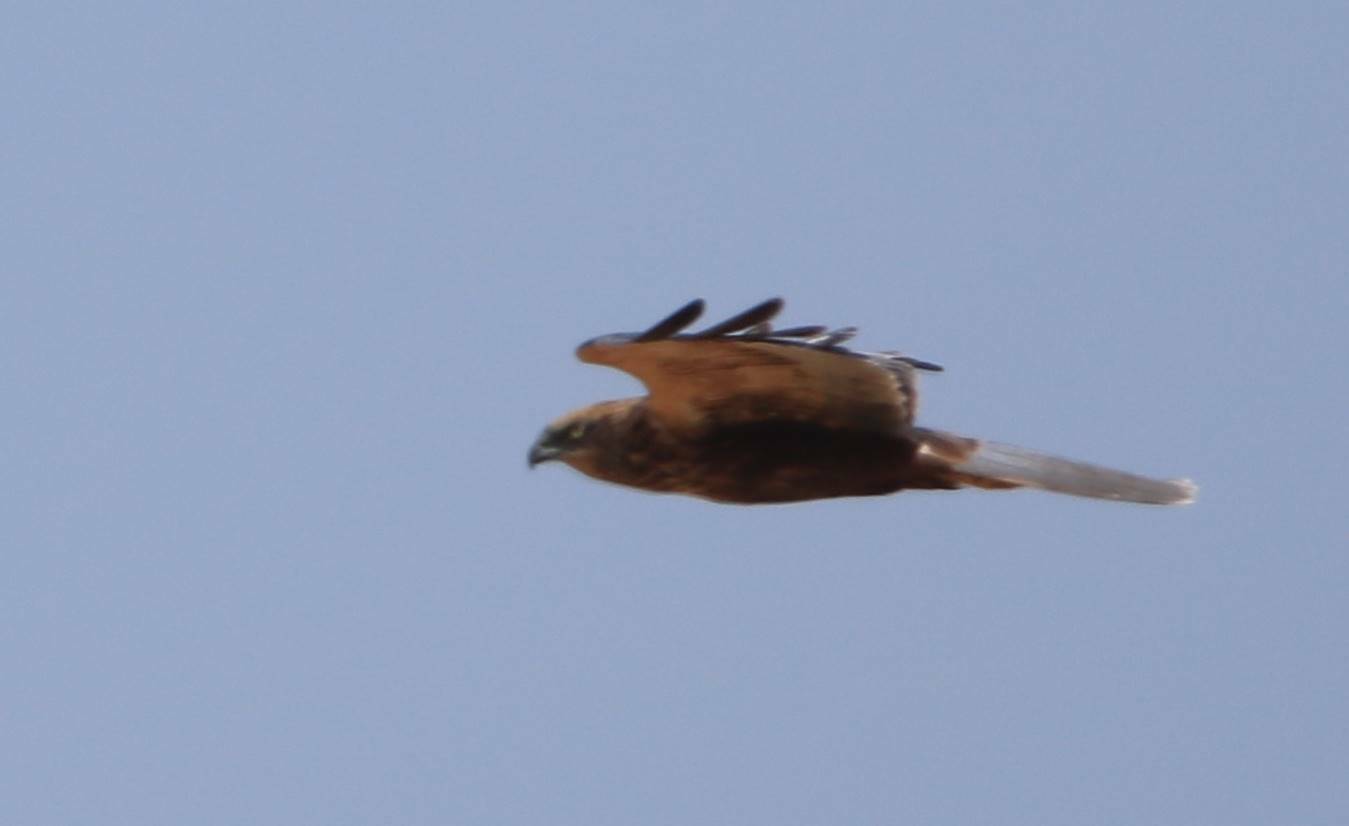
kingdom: Animalia
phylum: Chordata
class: Aves
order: Accipitriformes
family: Accipitridae
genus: Circus
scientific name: Circus aeruginosus
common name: Western marsh harrier
